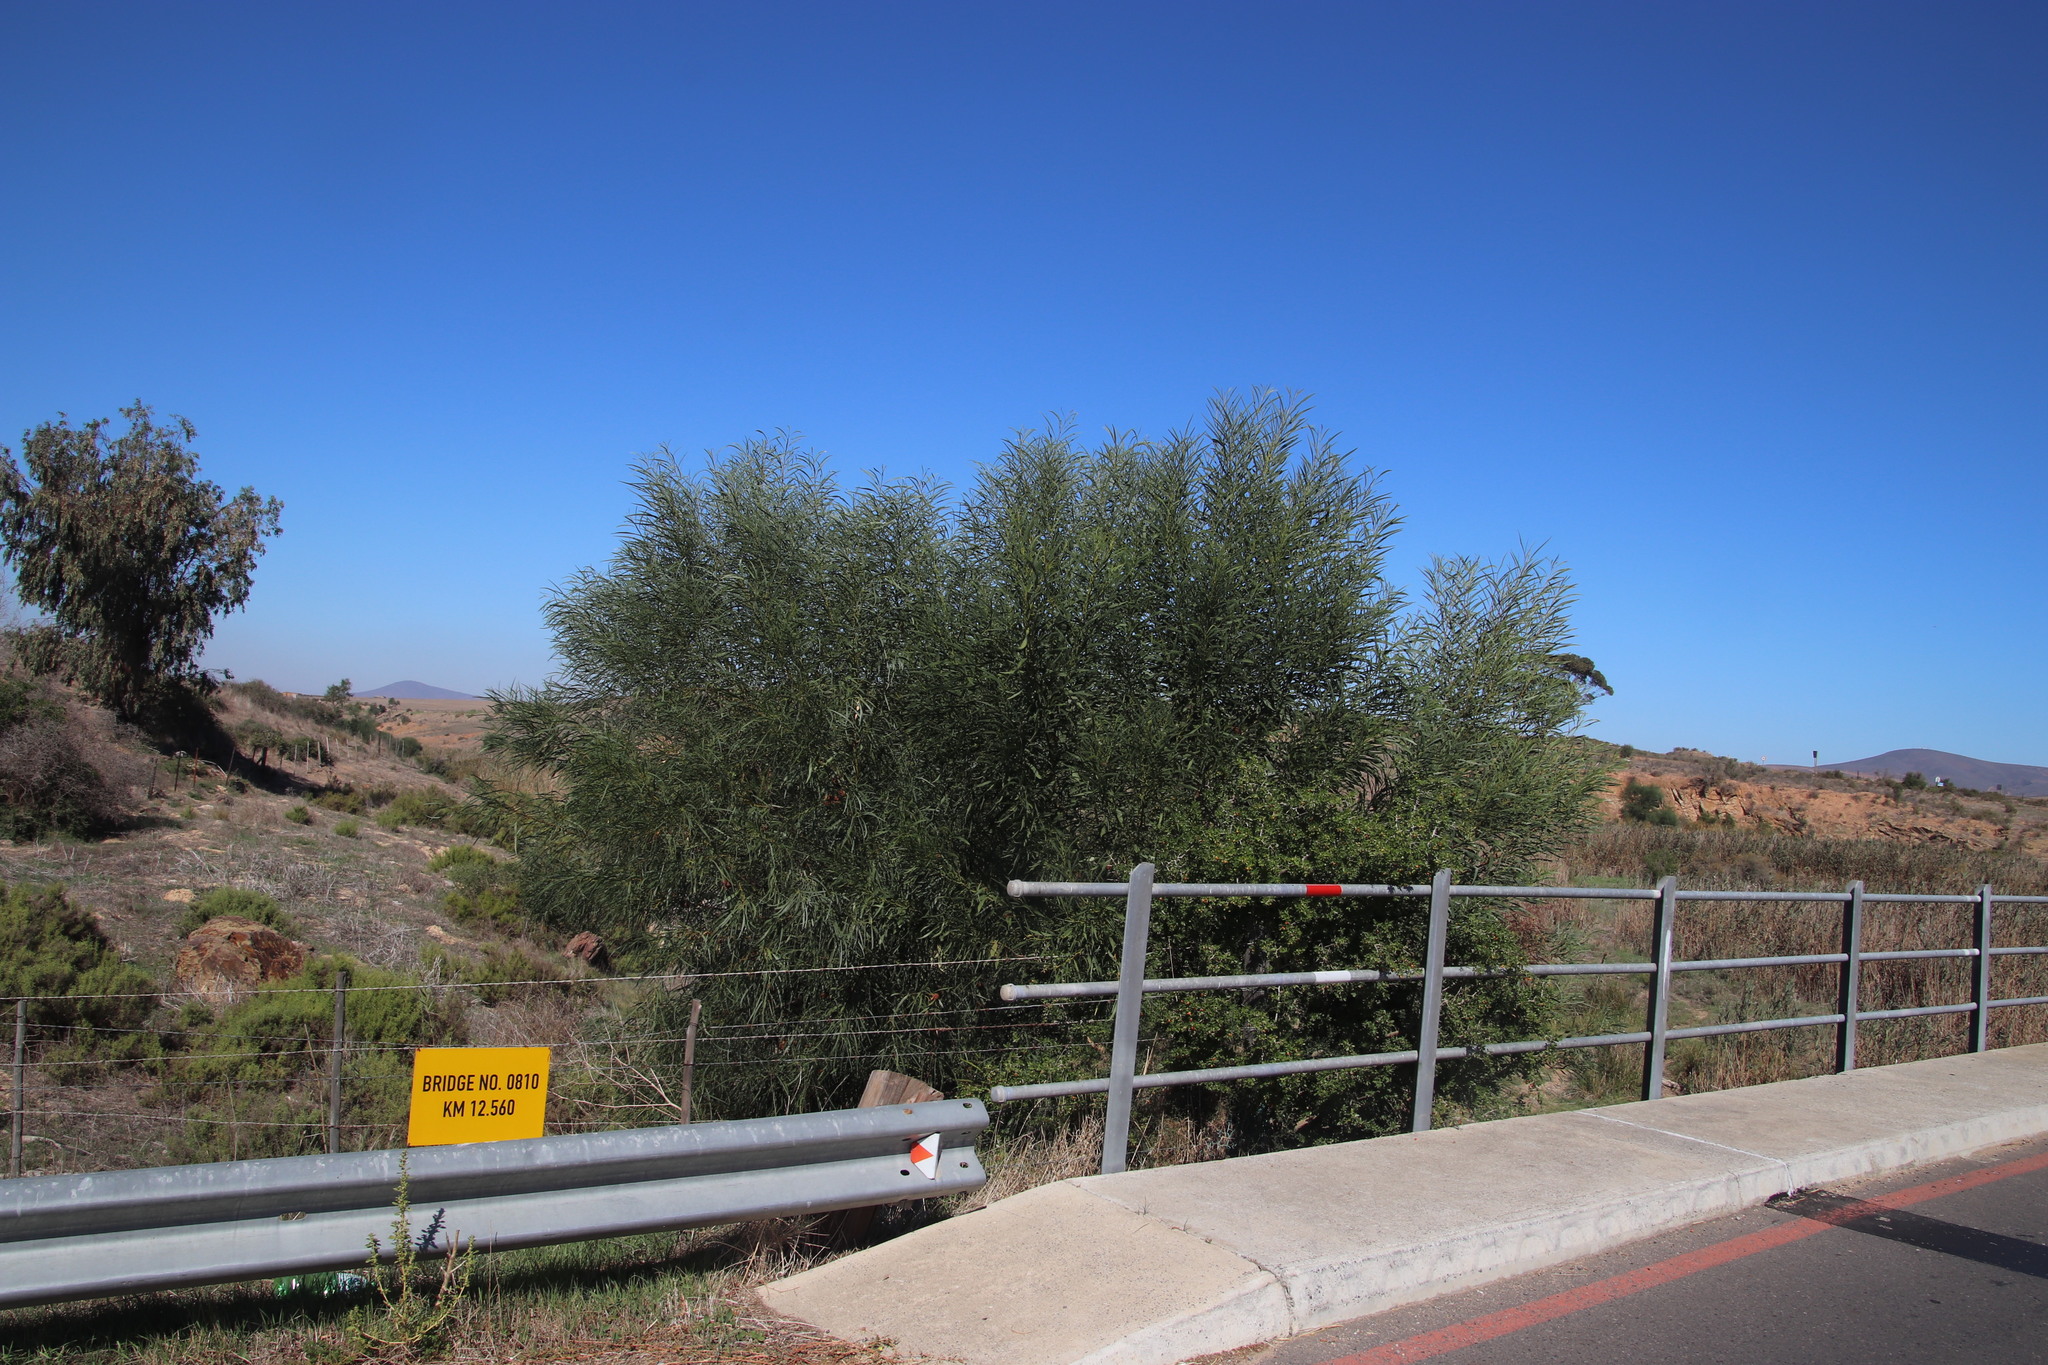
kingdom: Plantae
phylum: Tracheophyta
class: Magnoliopsida
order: Fabales
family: Fabaceae
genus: Acacia
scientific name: Acacia saligna
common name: Orange wattle
